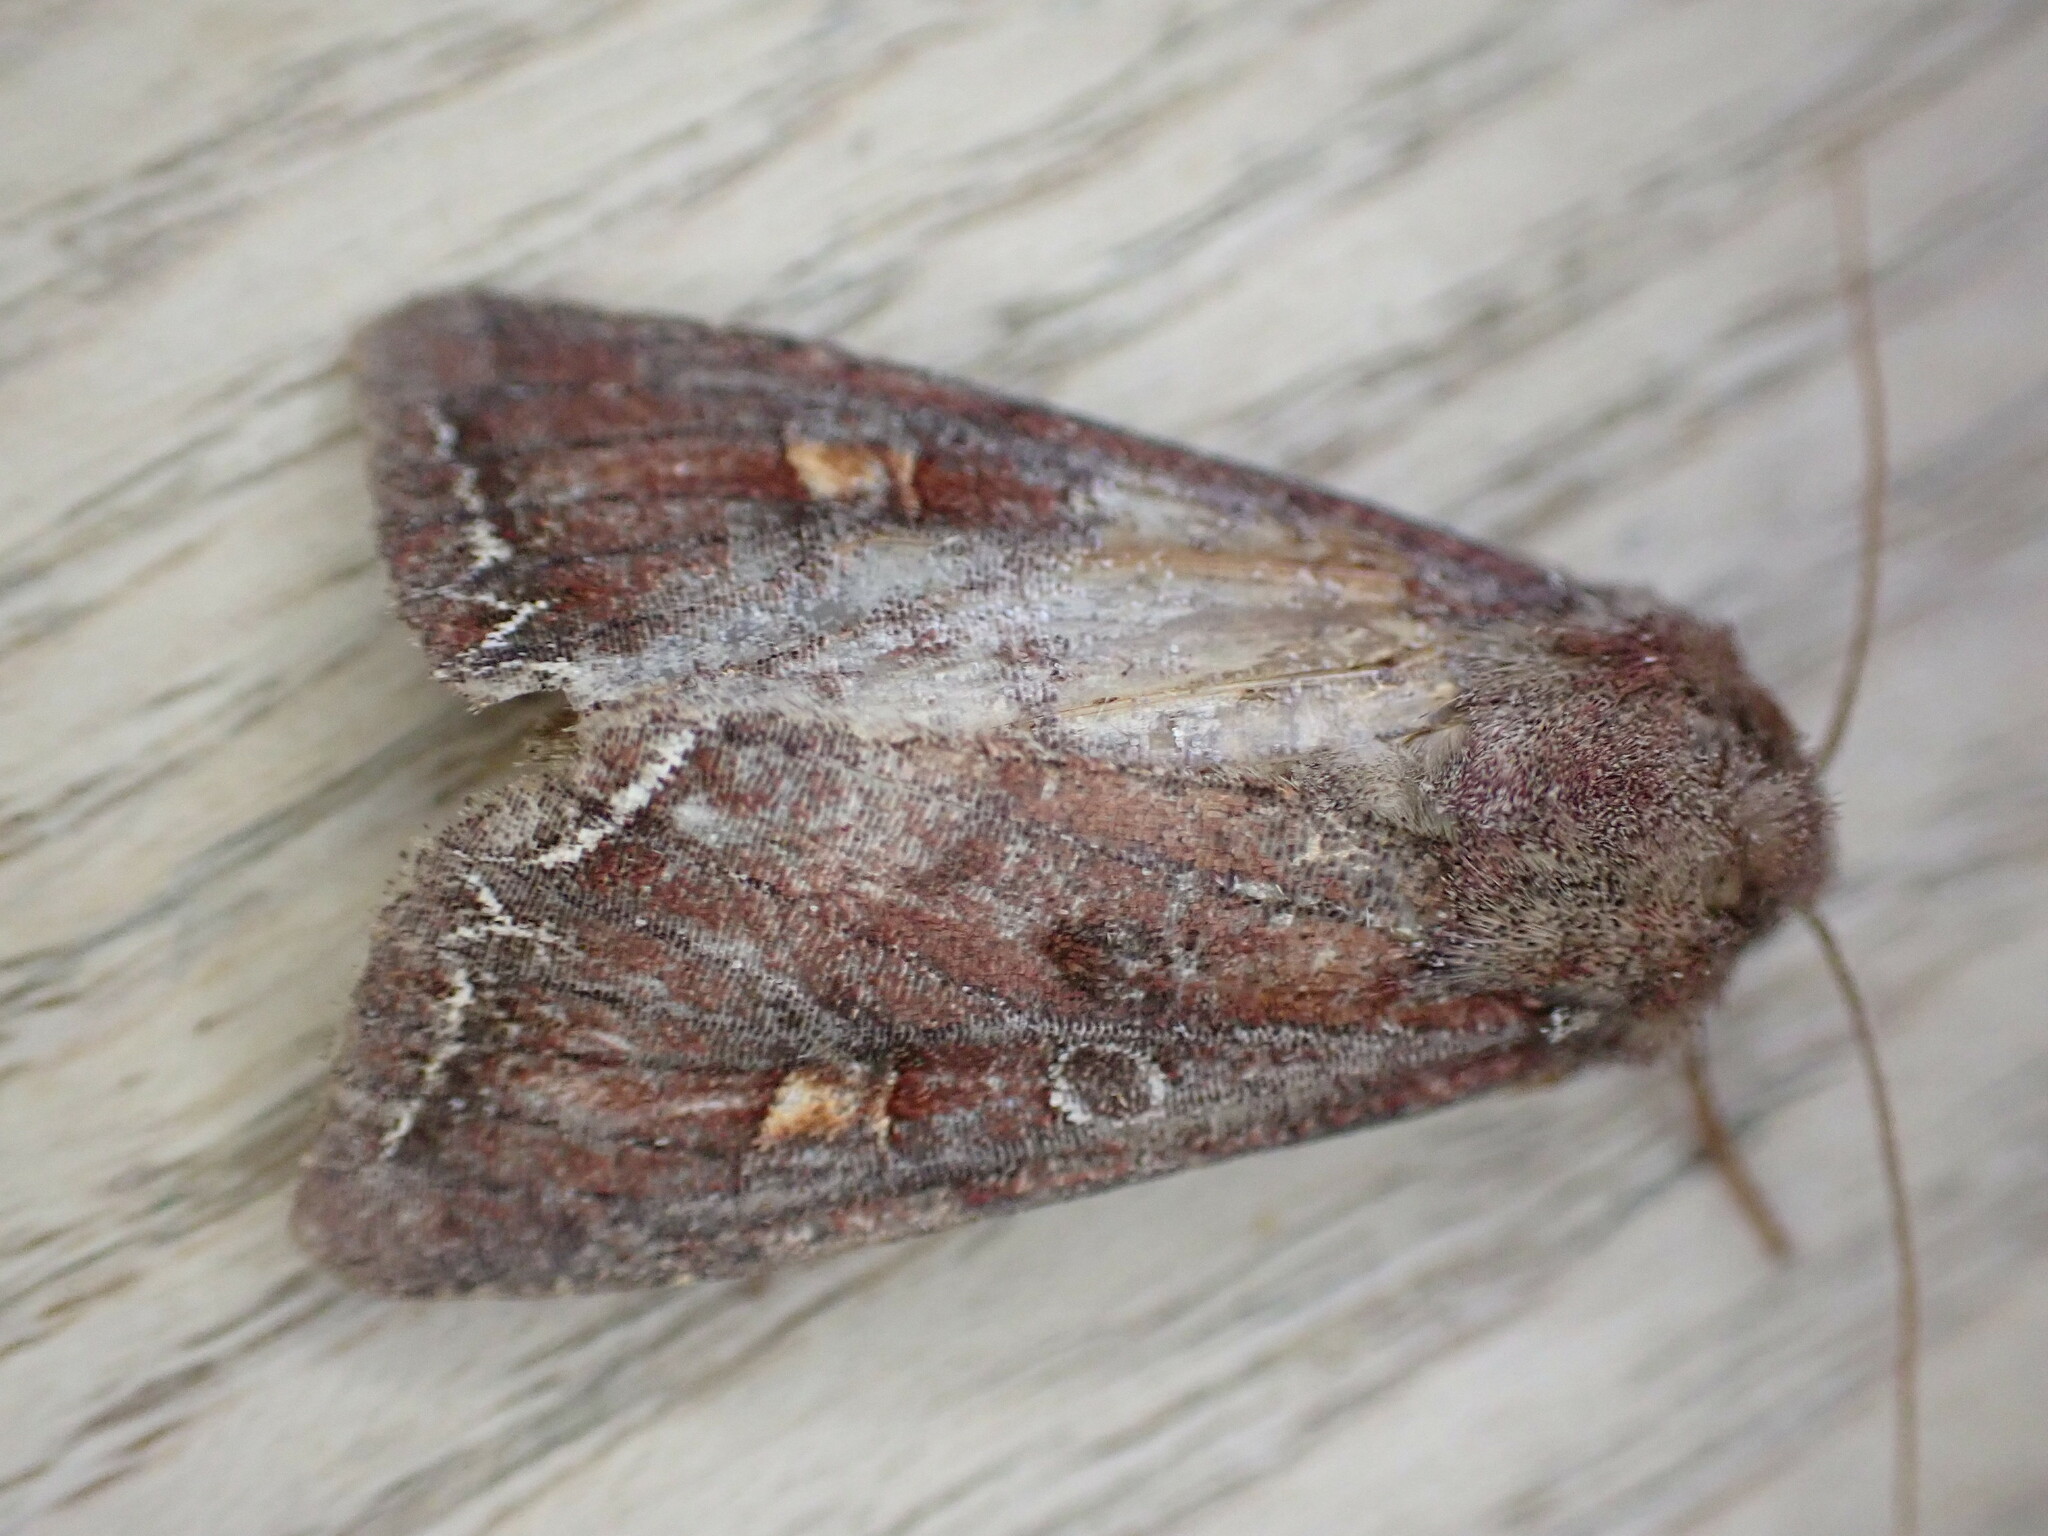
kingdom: Animalia
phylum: Arthropoda
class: Insecta
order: Lepidoptera
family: Noctuidae
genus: Lacanobia
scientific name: Lacanobia oleracea
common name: Bright-line brown-eye
